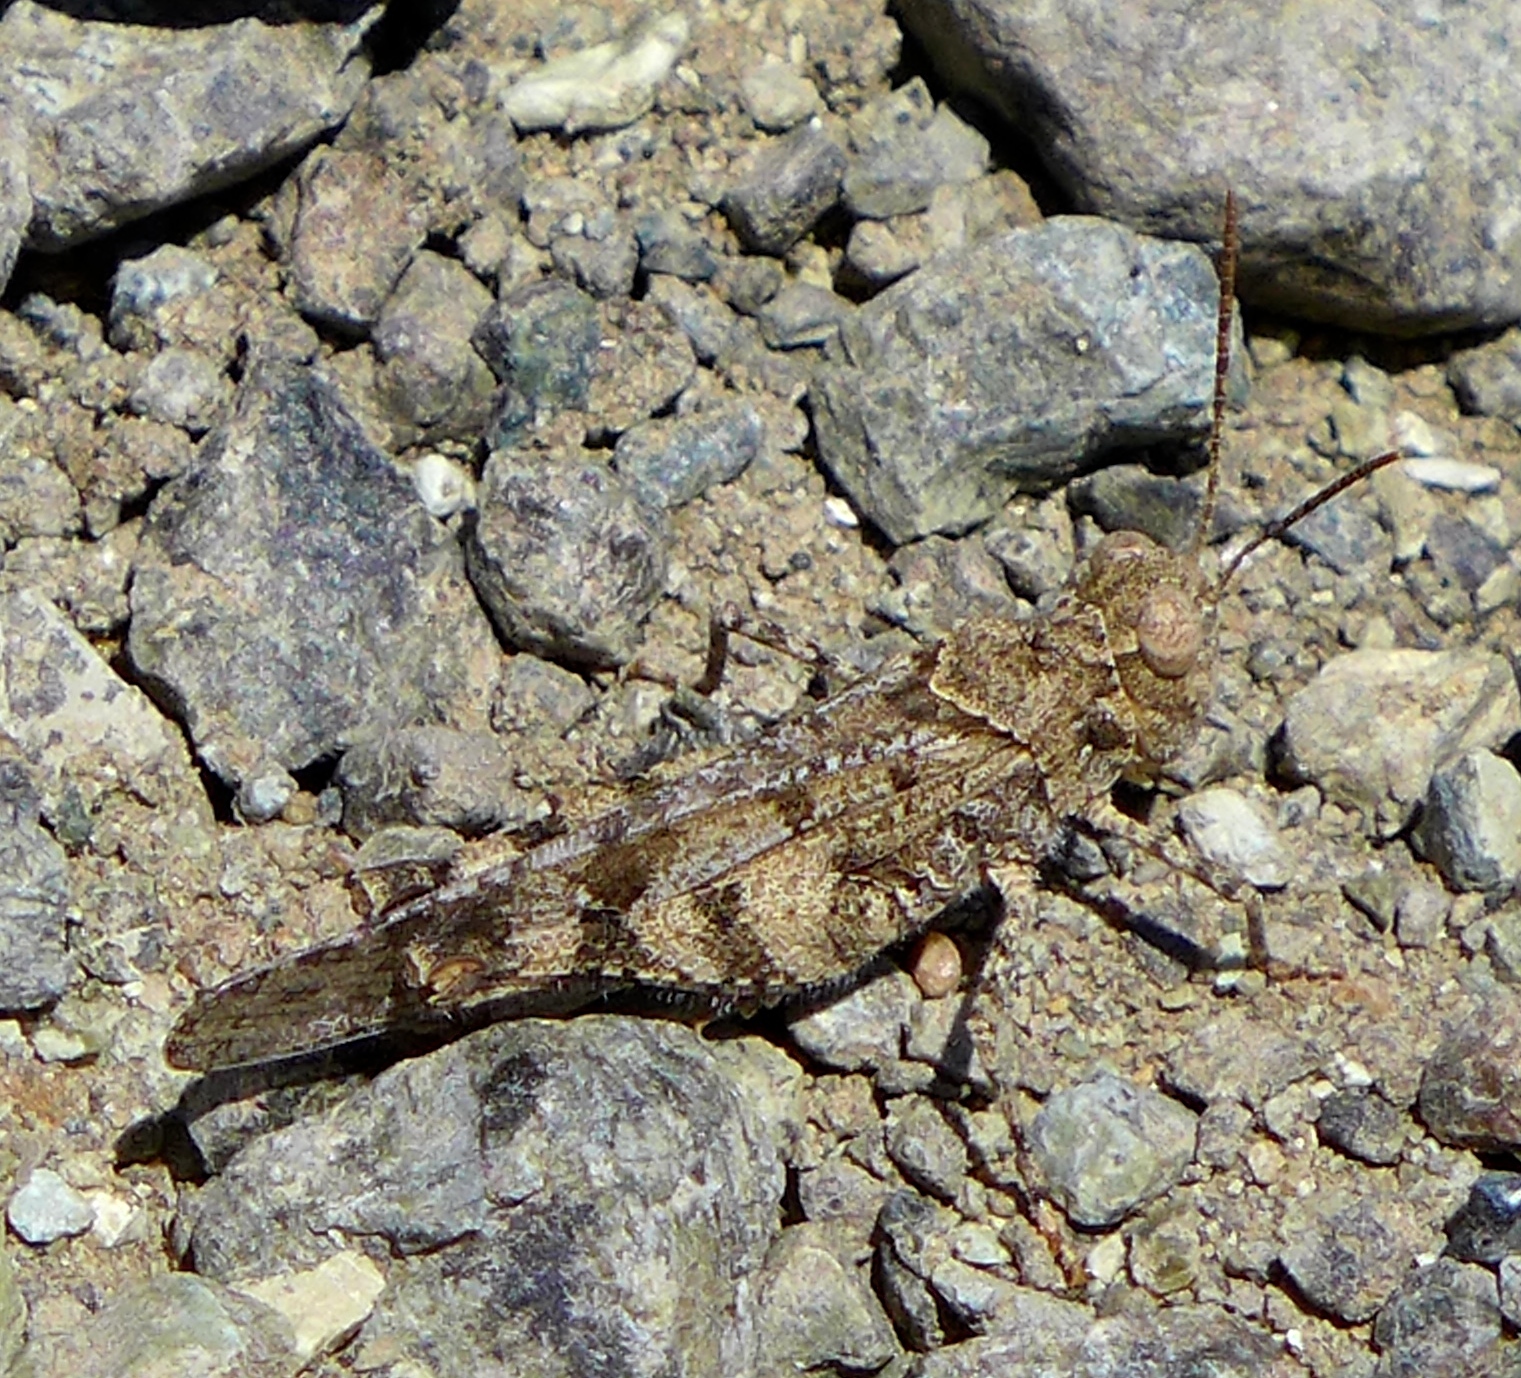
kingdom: Animalia
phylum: Arthropoda
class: Insecta
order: Orthoptera
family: Acrididae
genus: Dissosteira
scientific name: Dissosteira pictipennis
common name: California rose-winged grasshopper
